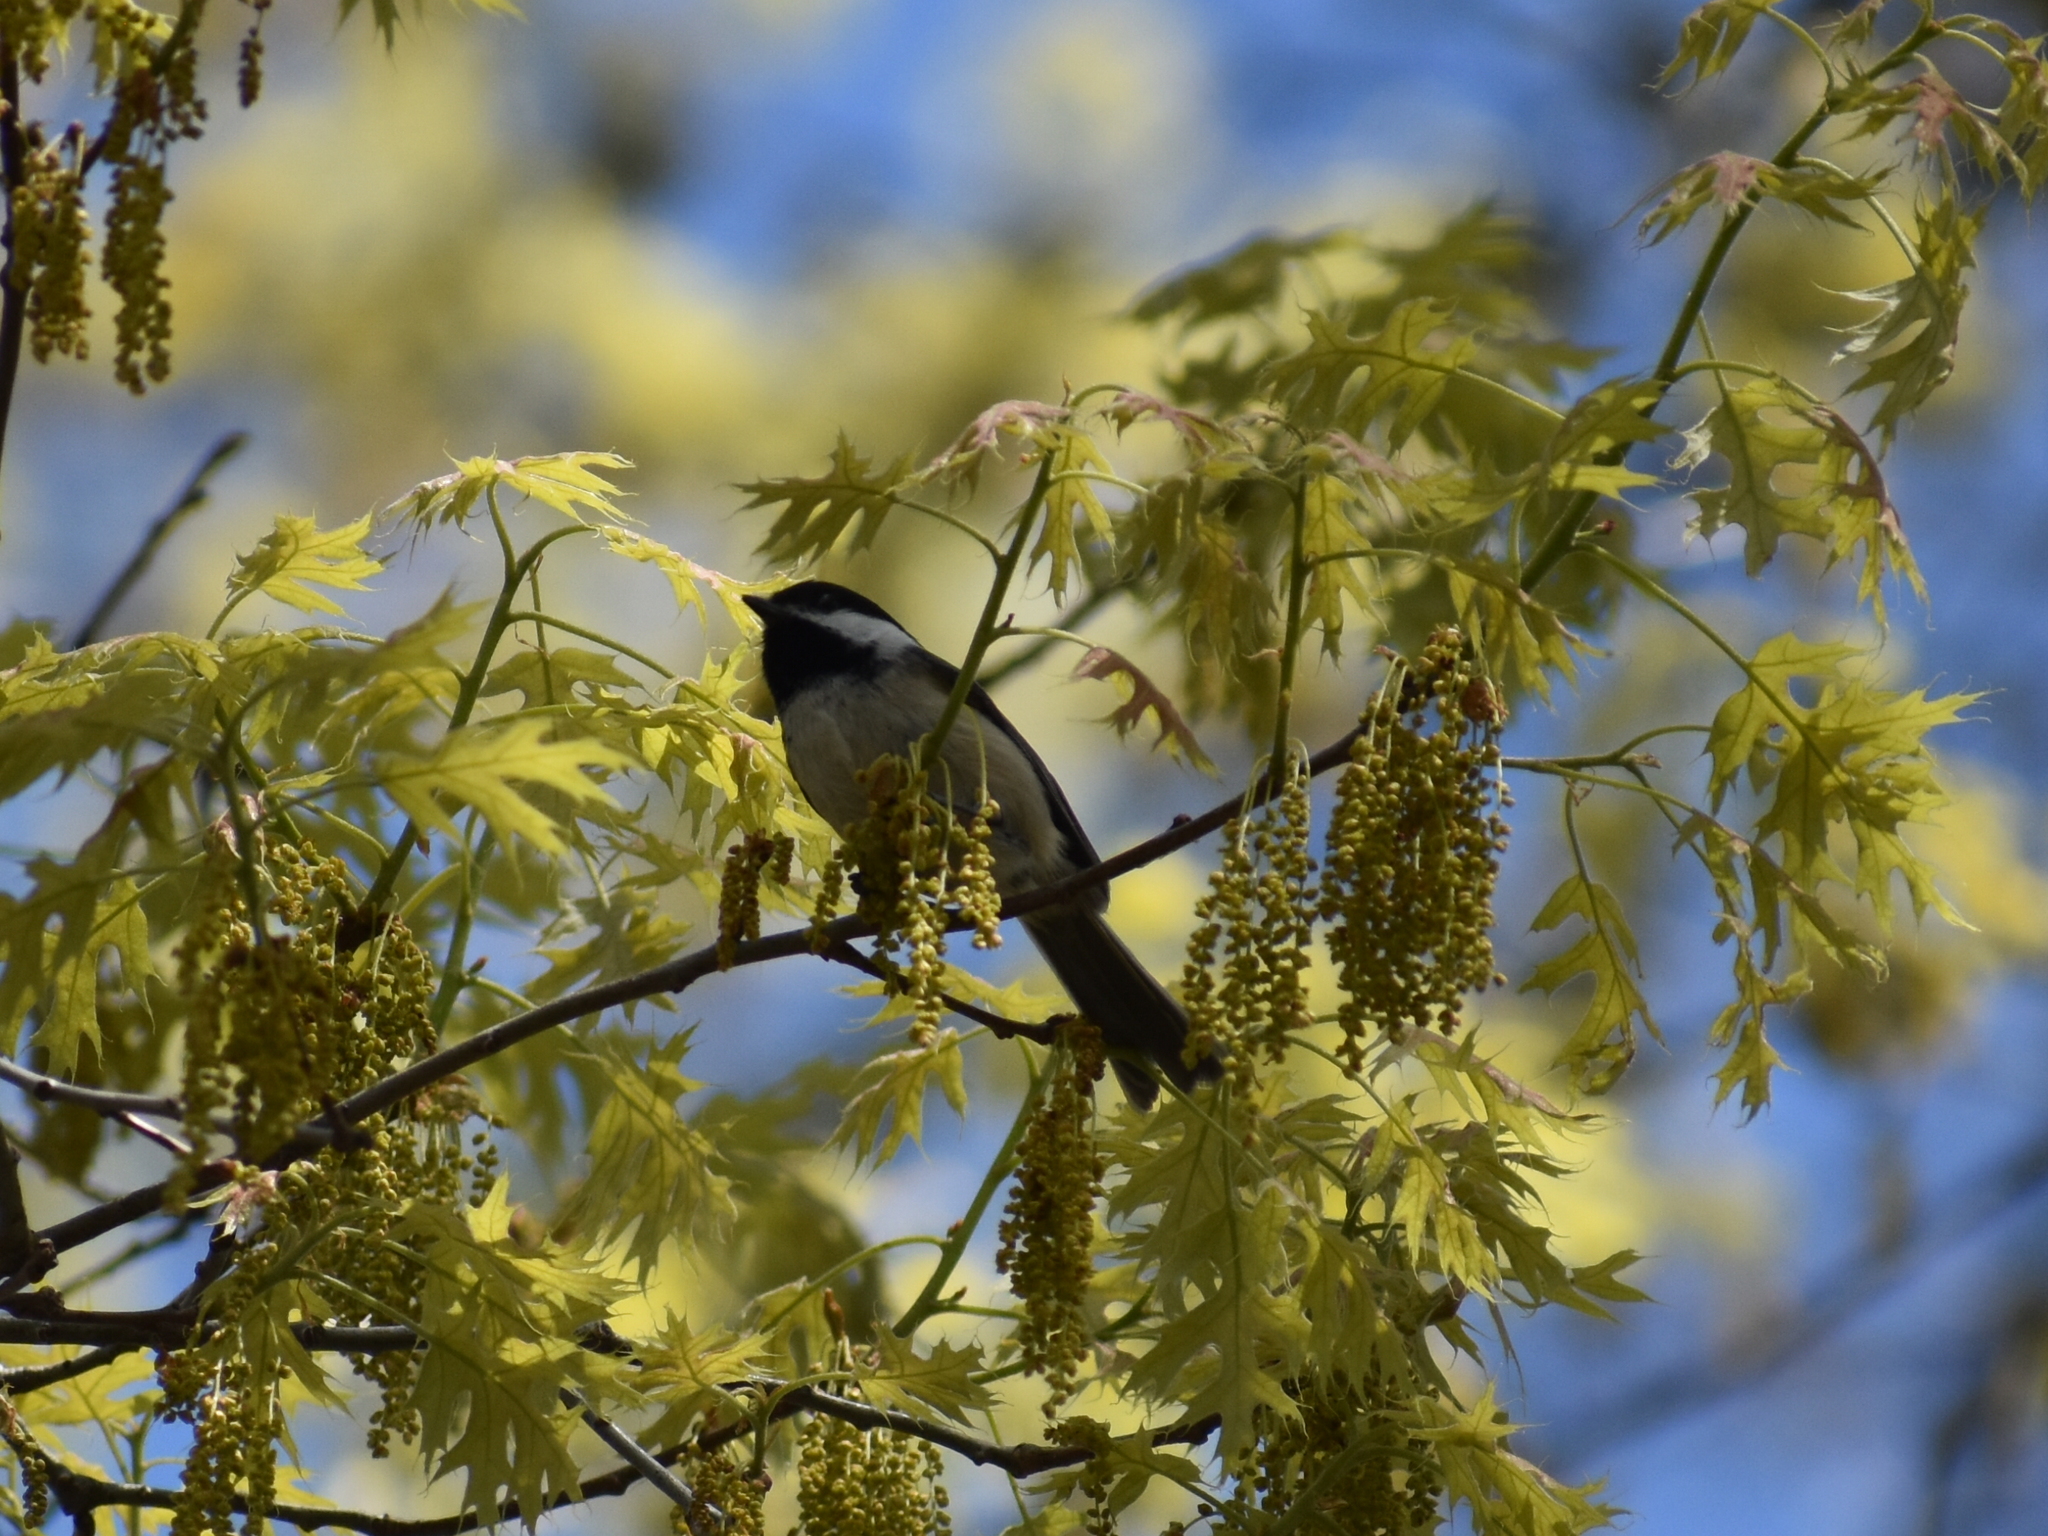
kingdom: Animalia
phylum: Chordata
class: Aves
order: Passeriformes
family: Paridae
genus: Poecile
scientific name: Poecile atricapillus
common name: Black-capped chickadee
